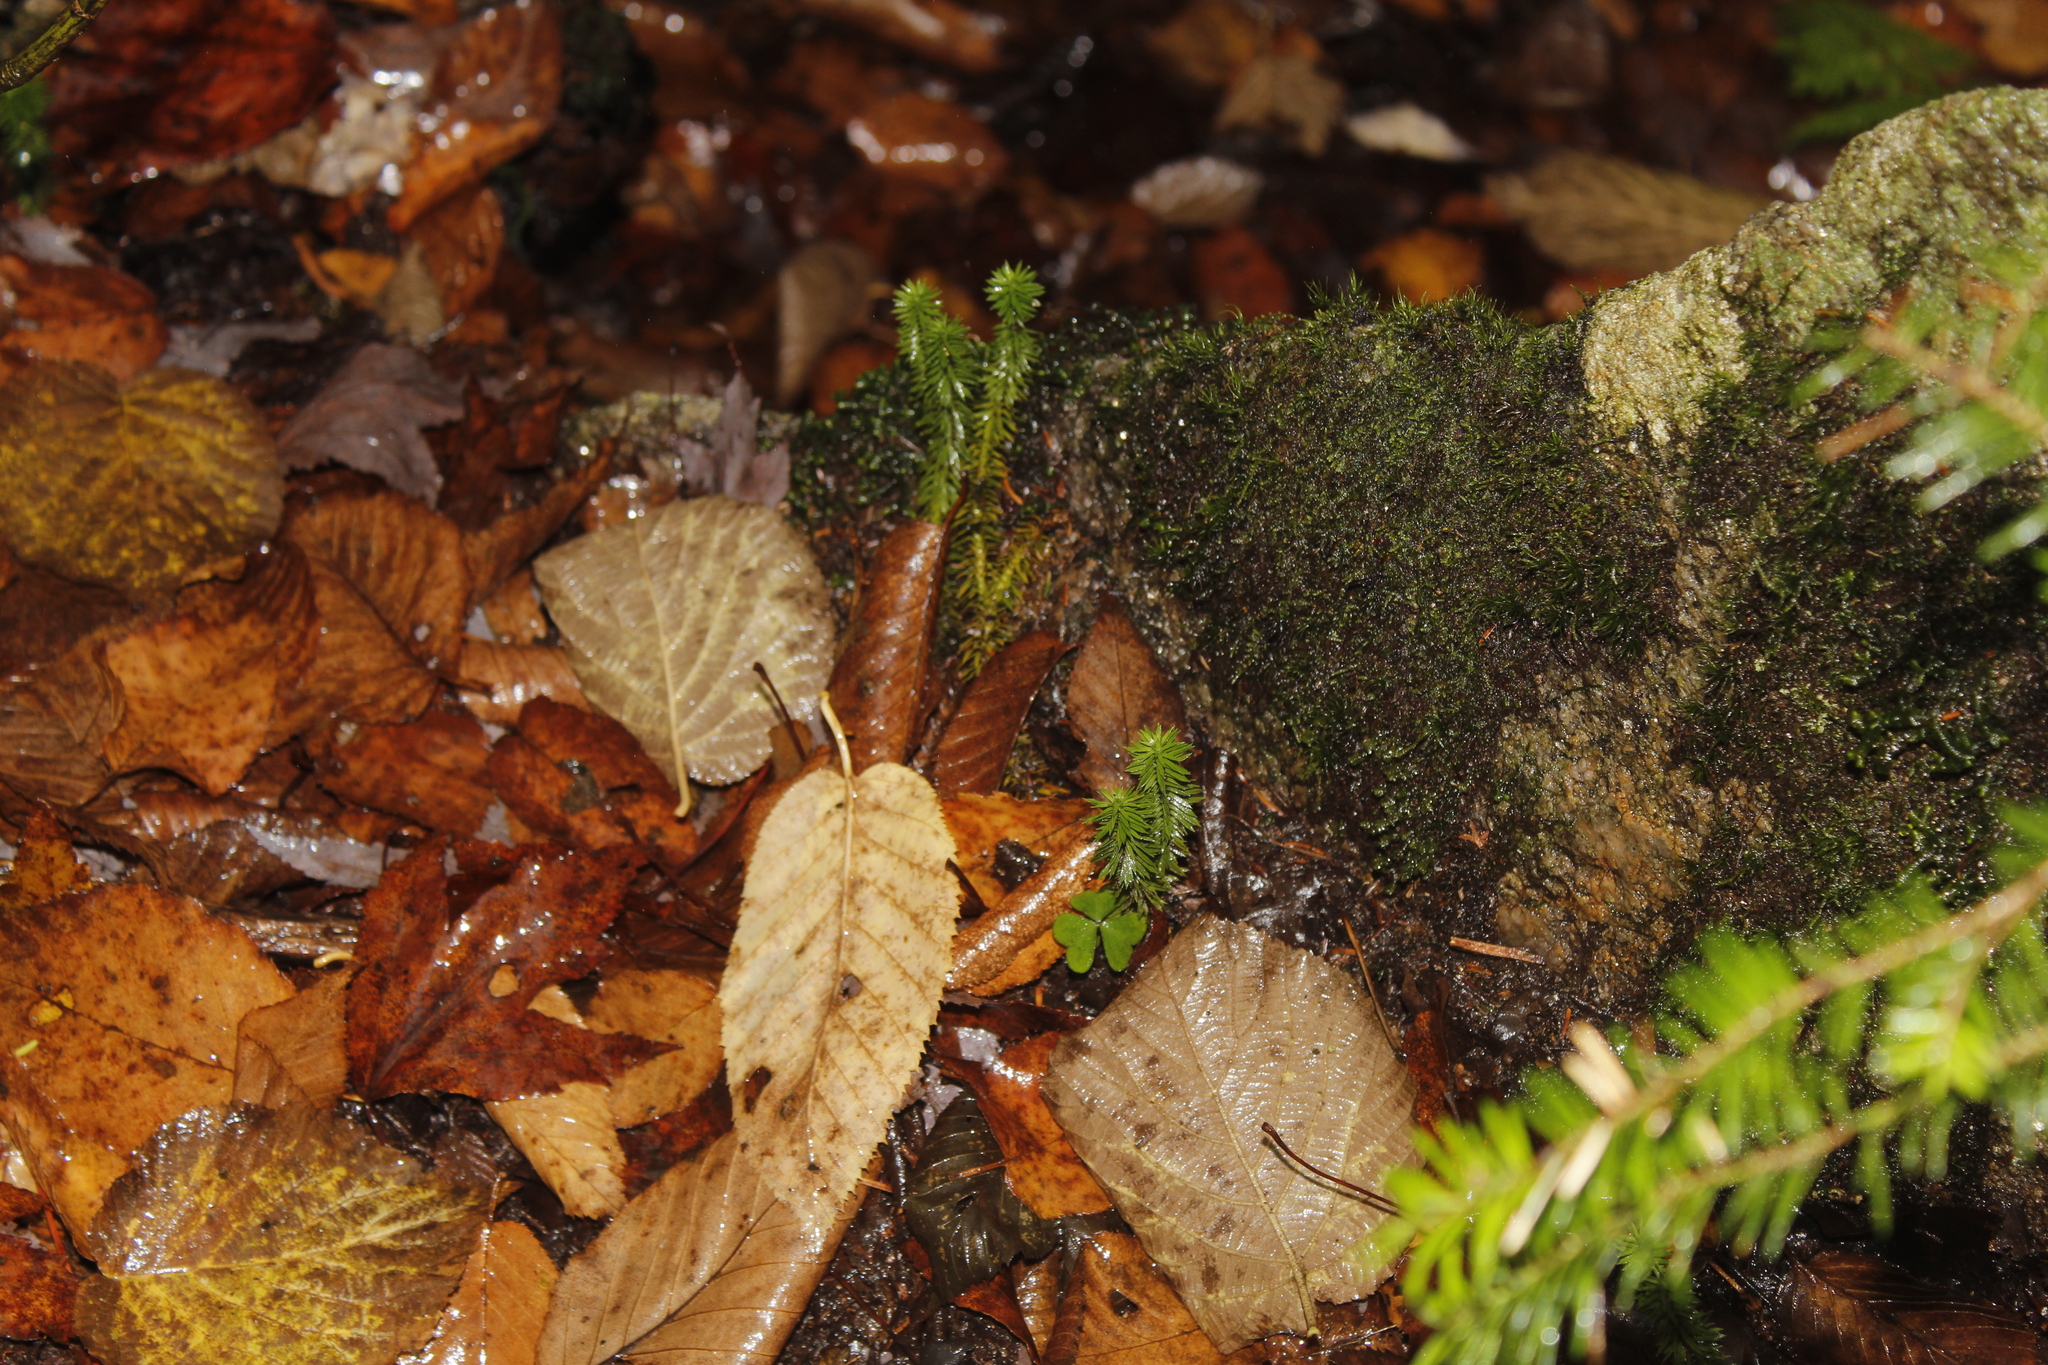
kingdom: Plantae
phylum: Tracheophyta
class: Lycopodiopsida
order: Lycopodiales
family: Lycopodiaceae
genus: Huperzia
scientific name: Huperzia lucidula
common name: Shining clubmoss
